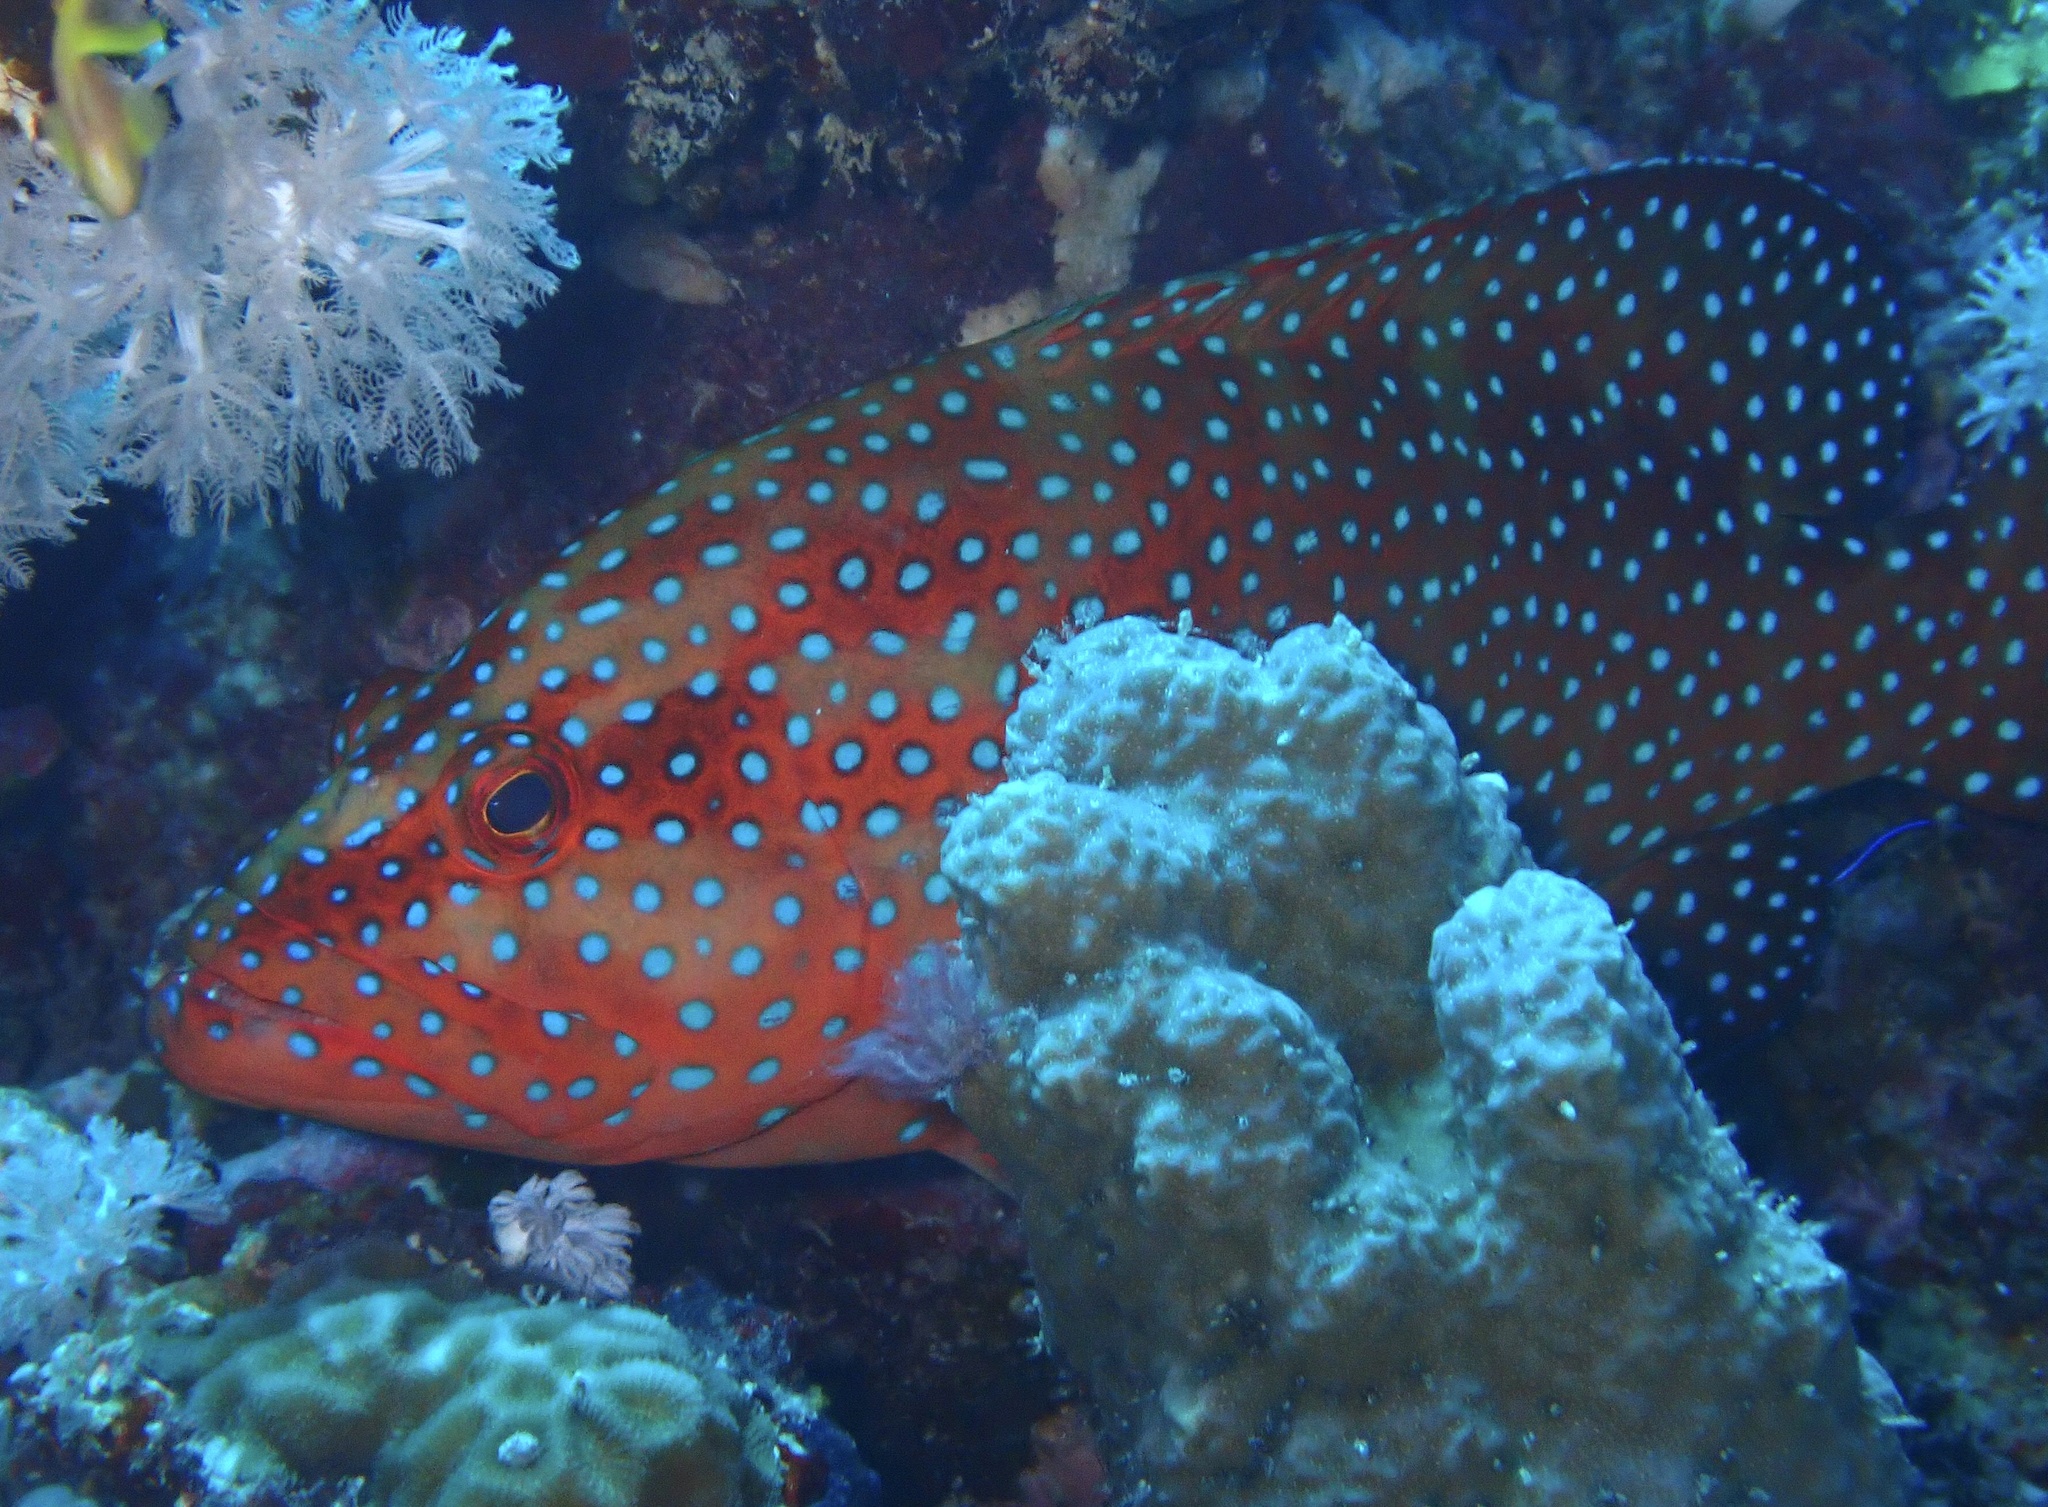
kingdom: Animalia
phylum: Chordata
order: Perciformes
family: Serranidae
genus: Cephalopholis
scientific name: Cephalopholis miniata
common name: Coral hind
